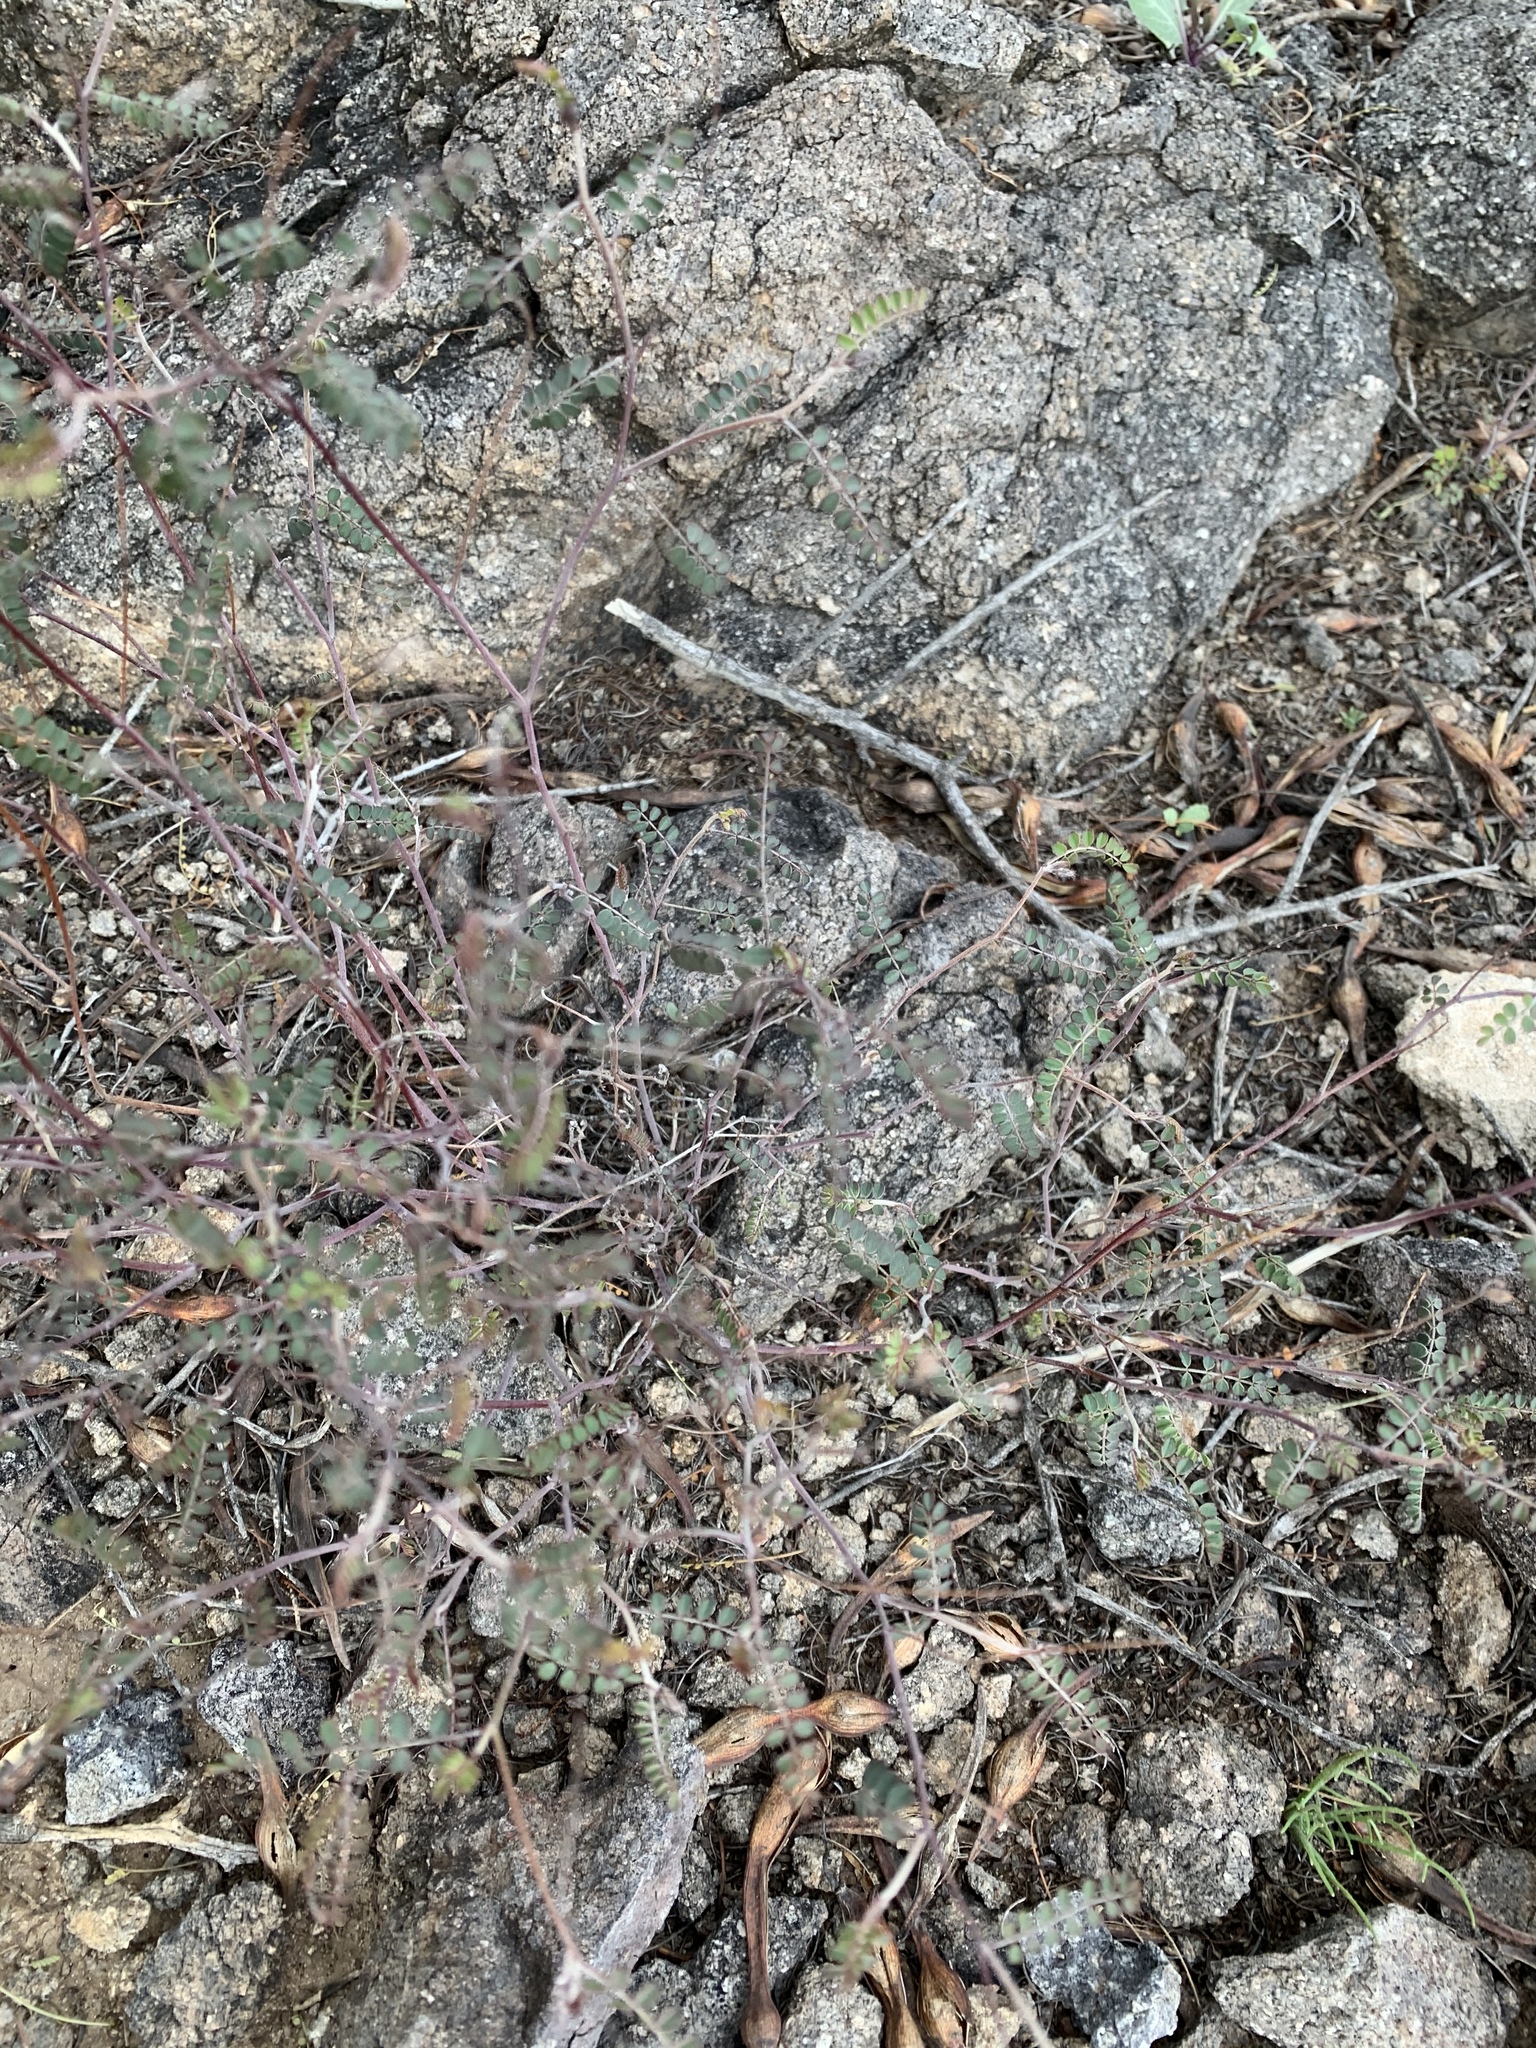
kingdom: Plantae
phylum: Tracheophyta
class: Magnoliopsida
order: Fabales
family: Fabaceae
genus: Marina
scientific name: Marina parryi
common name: Parry's marina
